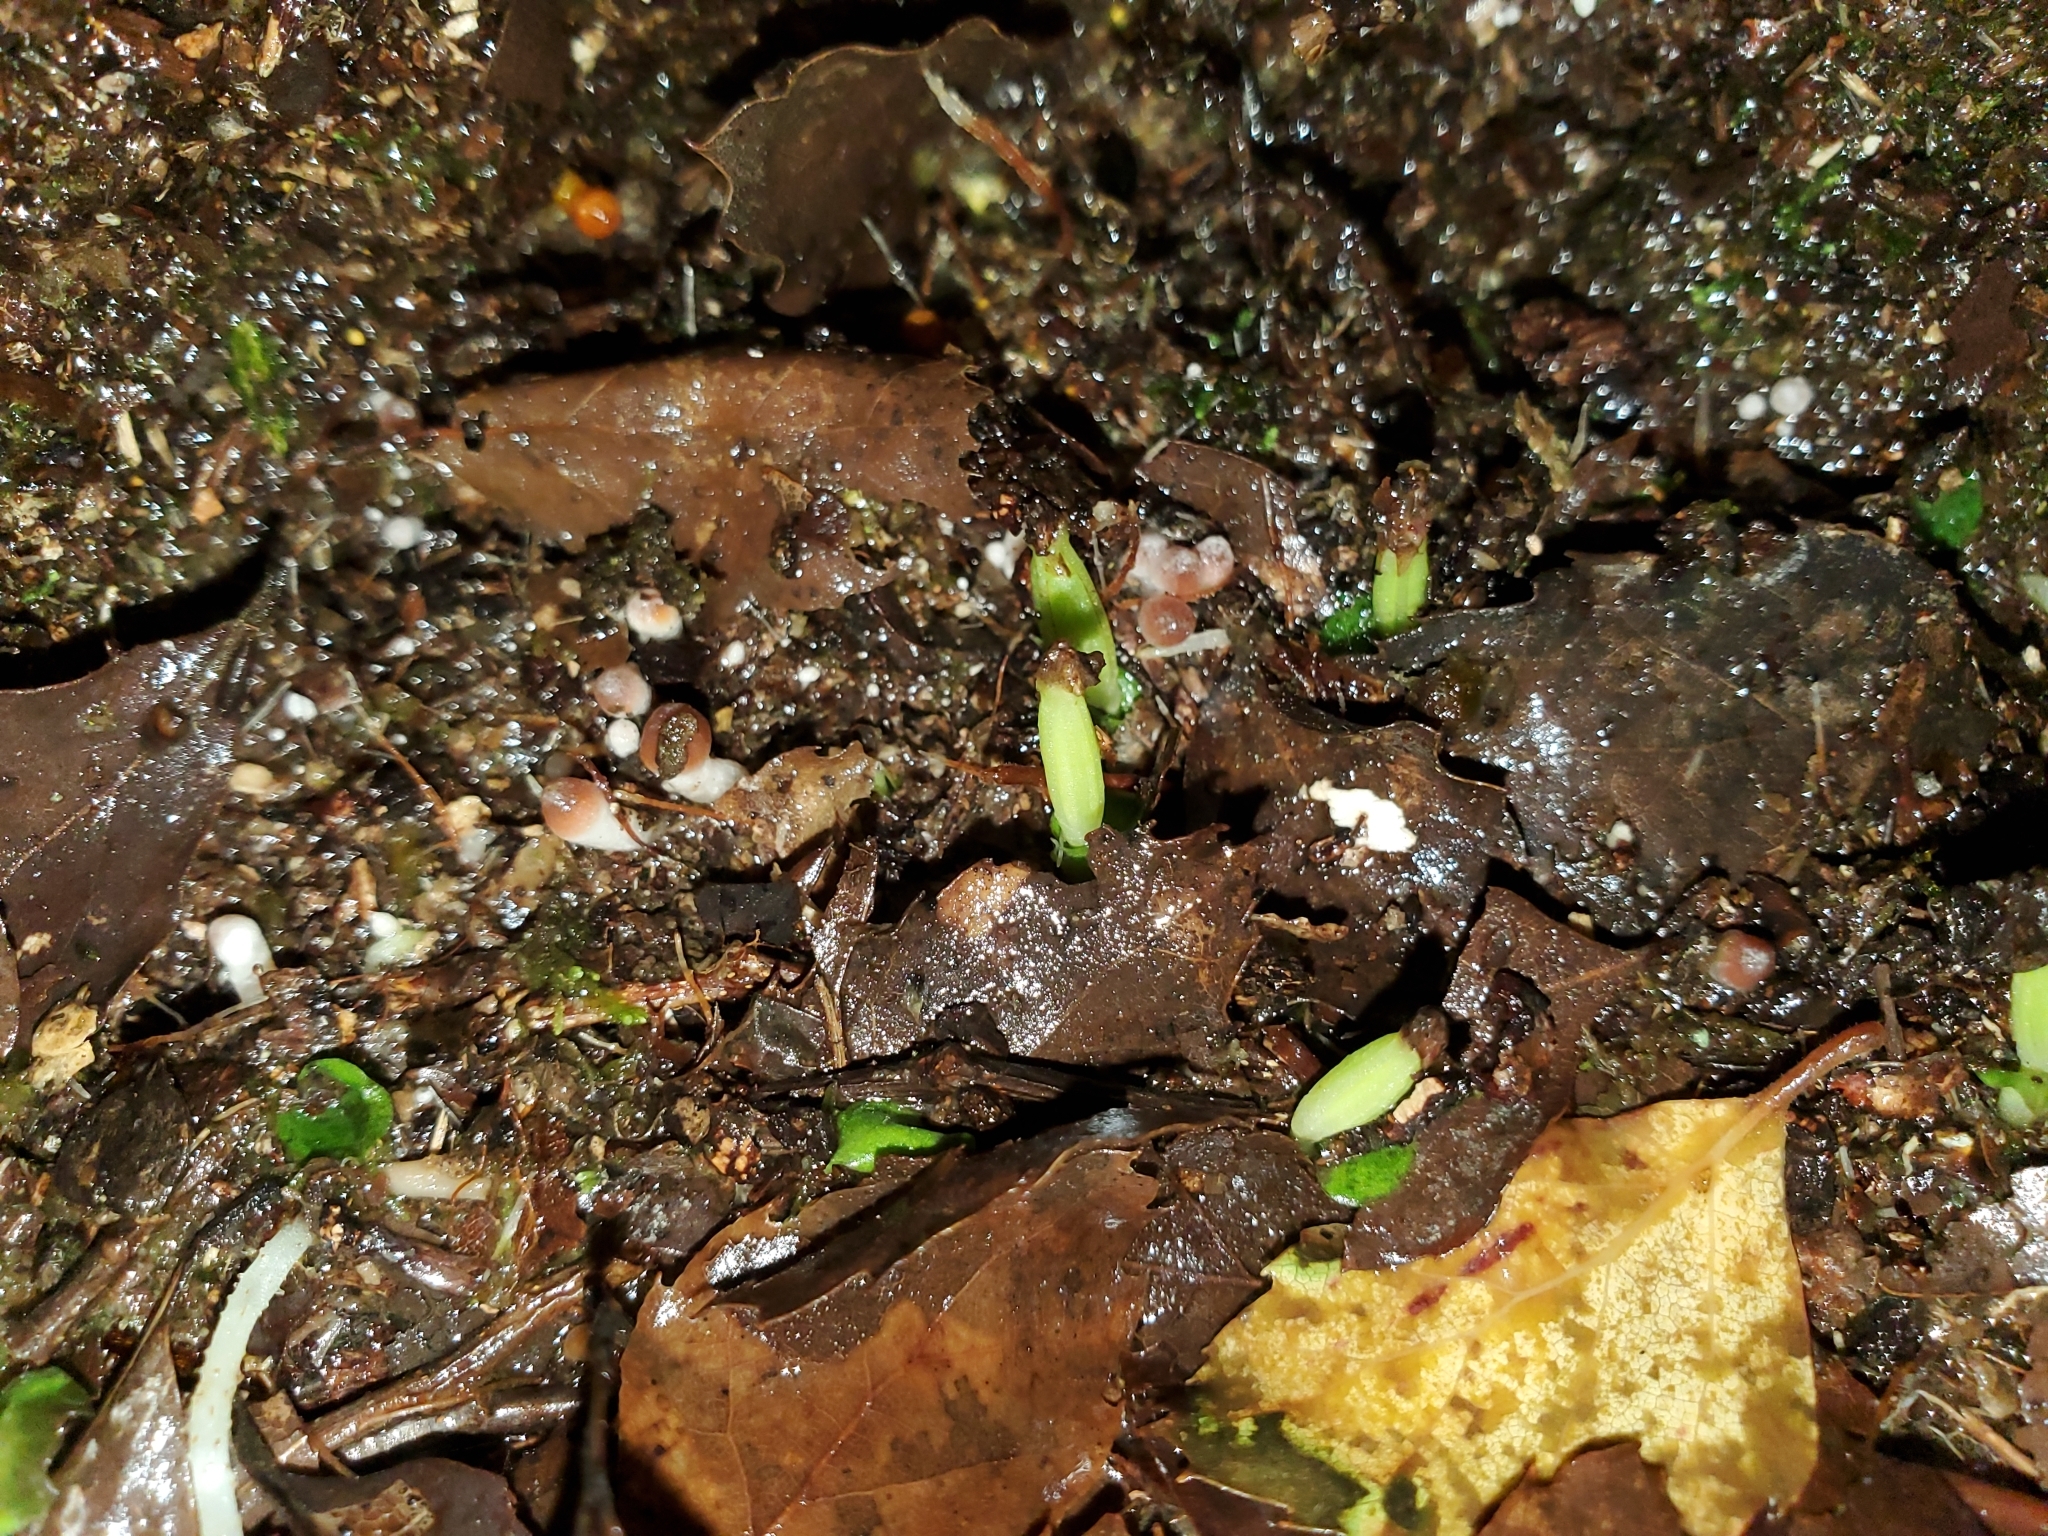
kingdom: Plantae
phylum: Tracheophyta
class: Liliopsida
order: Asparagales
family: Orchidaceae
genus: Corybas
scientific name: Corybas cheesemanii
